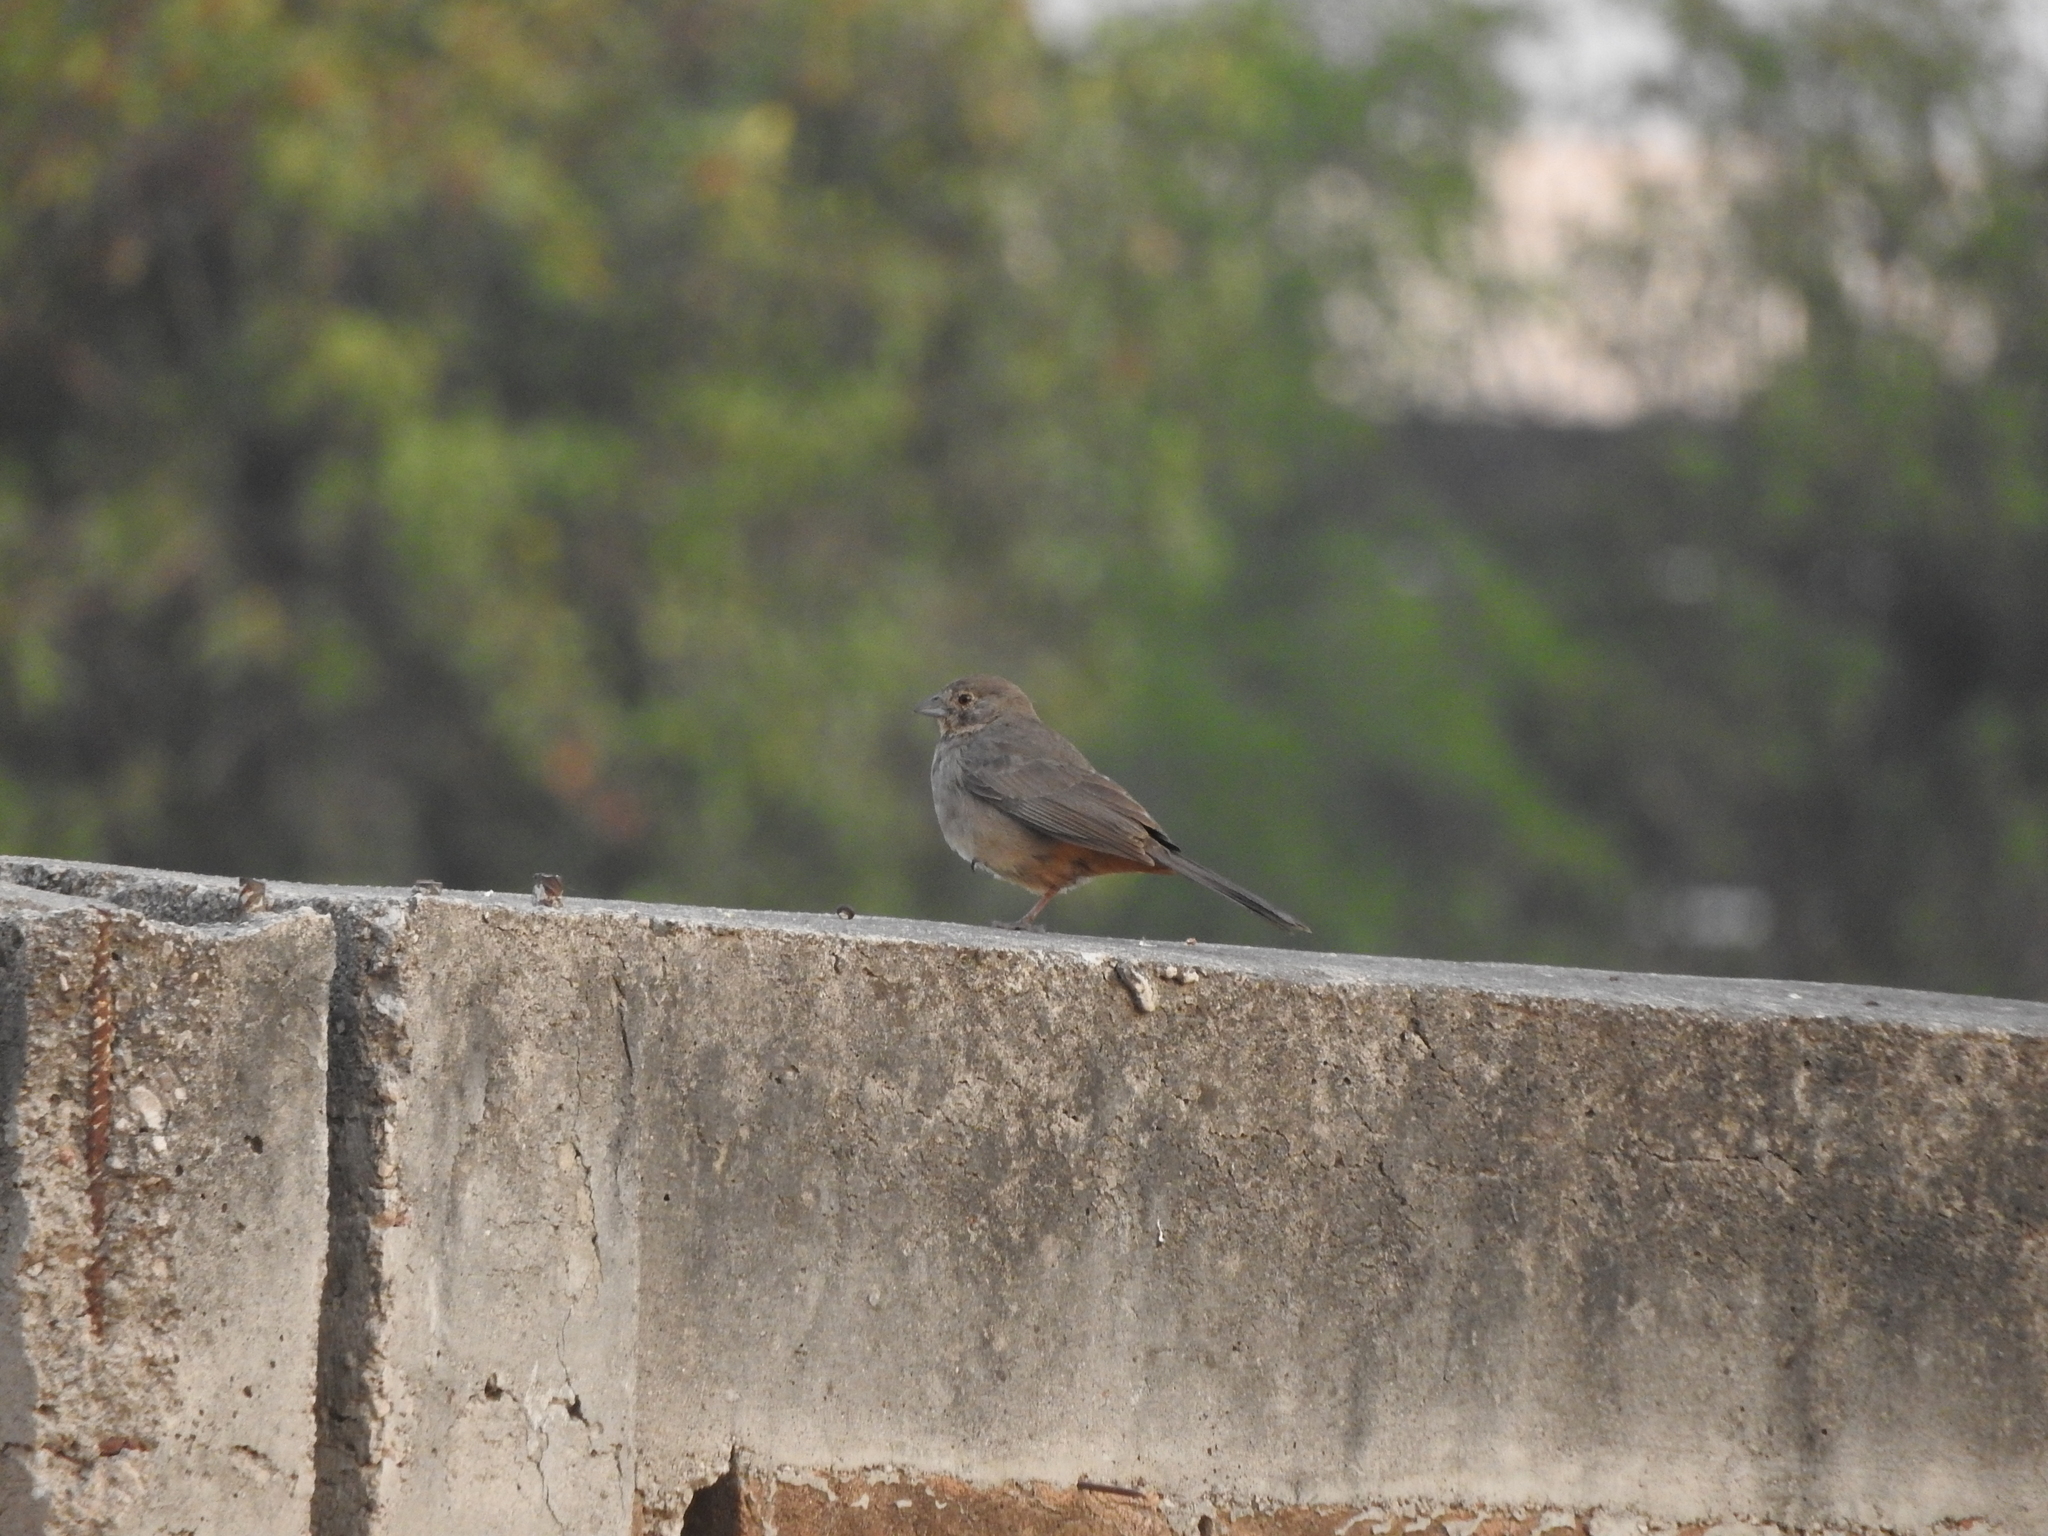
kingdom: Animalia
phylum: Chordata
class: Aves
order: Passeriformes
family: Passerellidae
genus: Melozone
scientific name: Melozone fusca
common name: Canyon towhee
